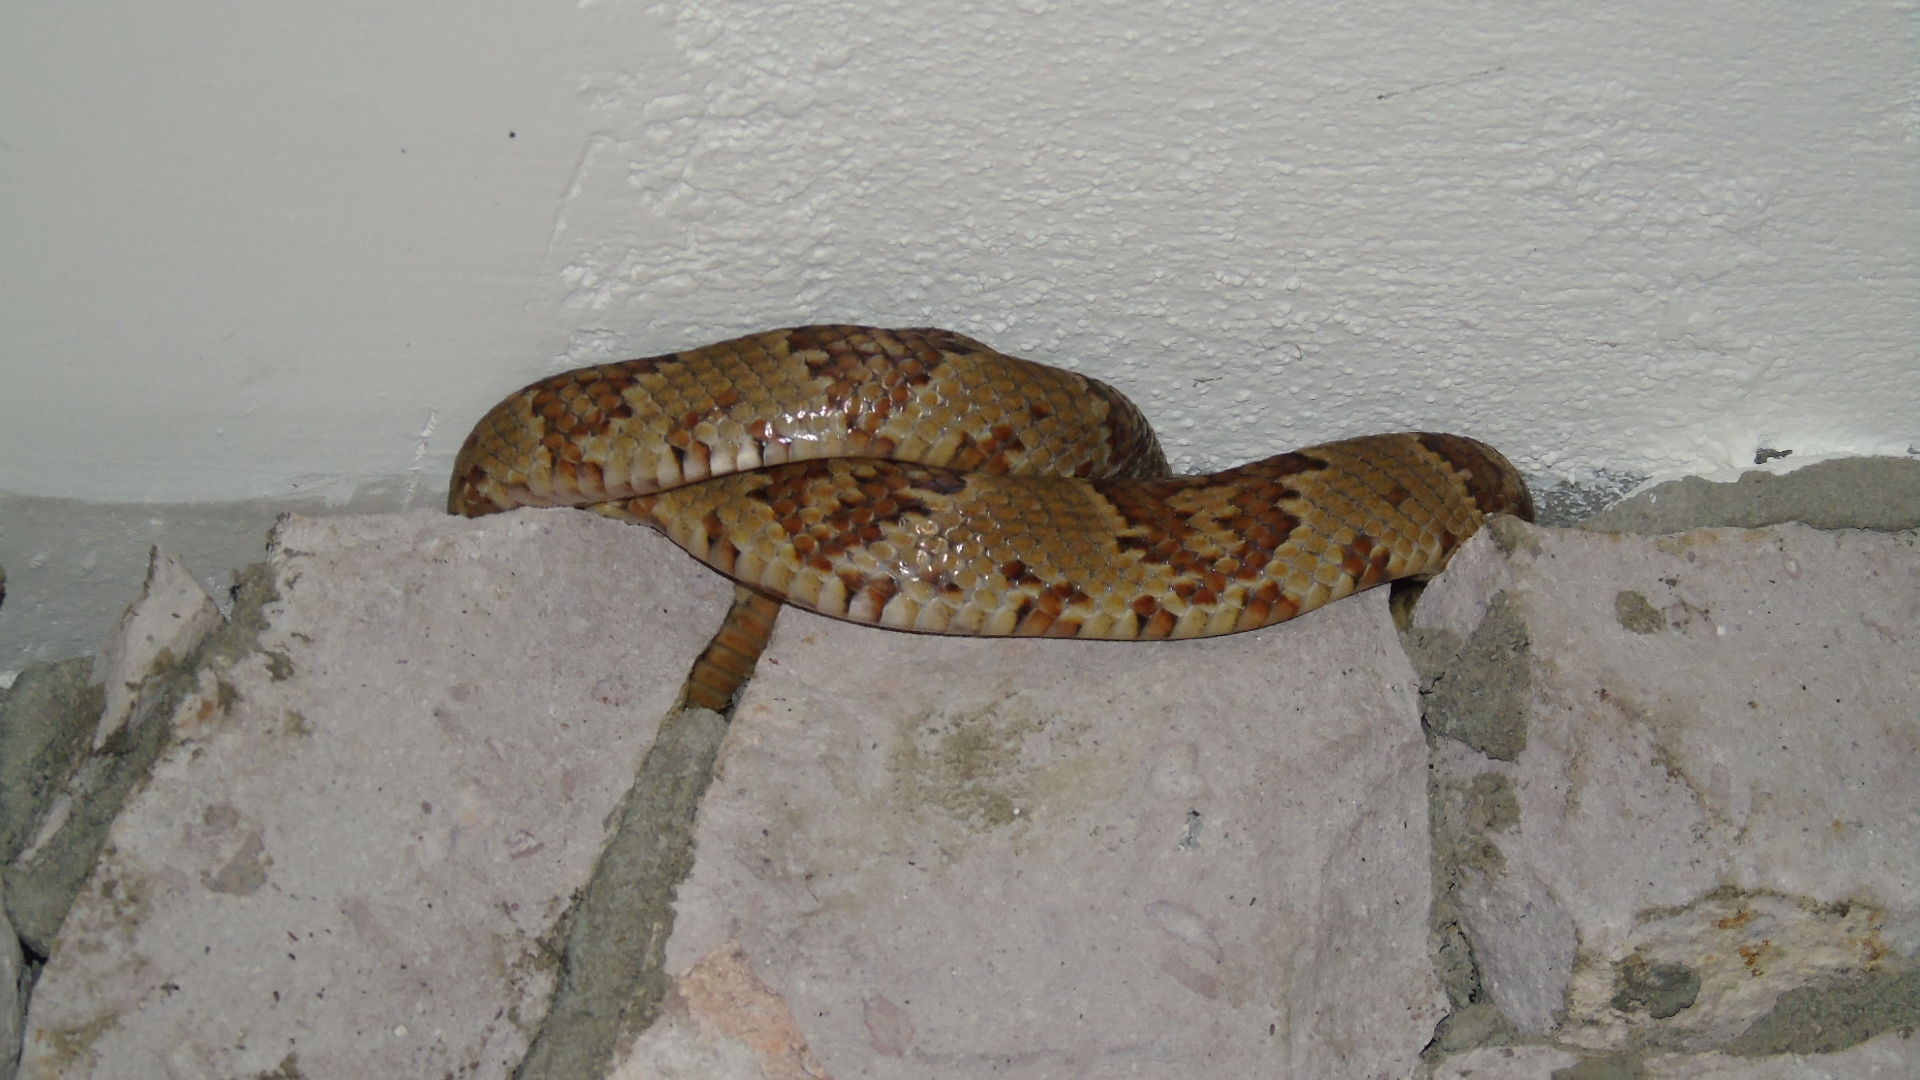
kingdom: Animalia
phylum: Chordata
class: Squamata
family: Colubridae
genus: Trimorphodon
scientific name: Trimorphodon paucimaculatus
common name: Sinaloan lyresnake
